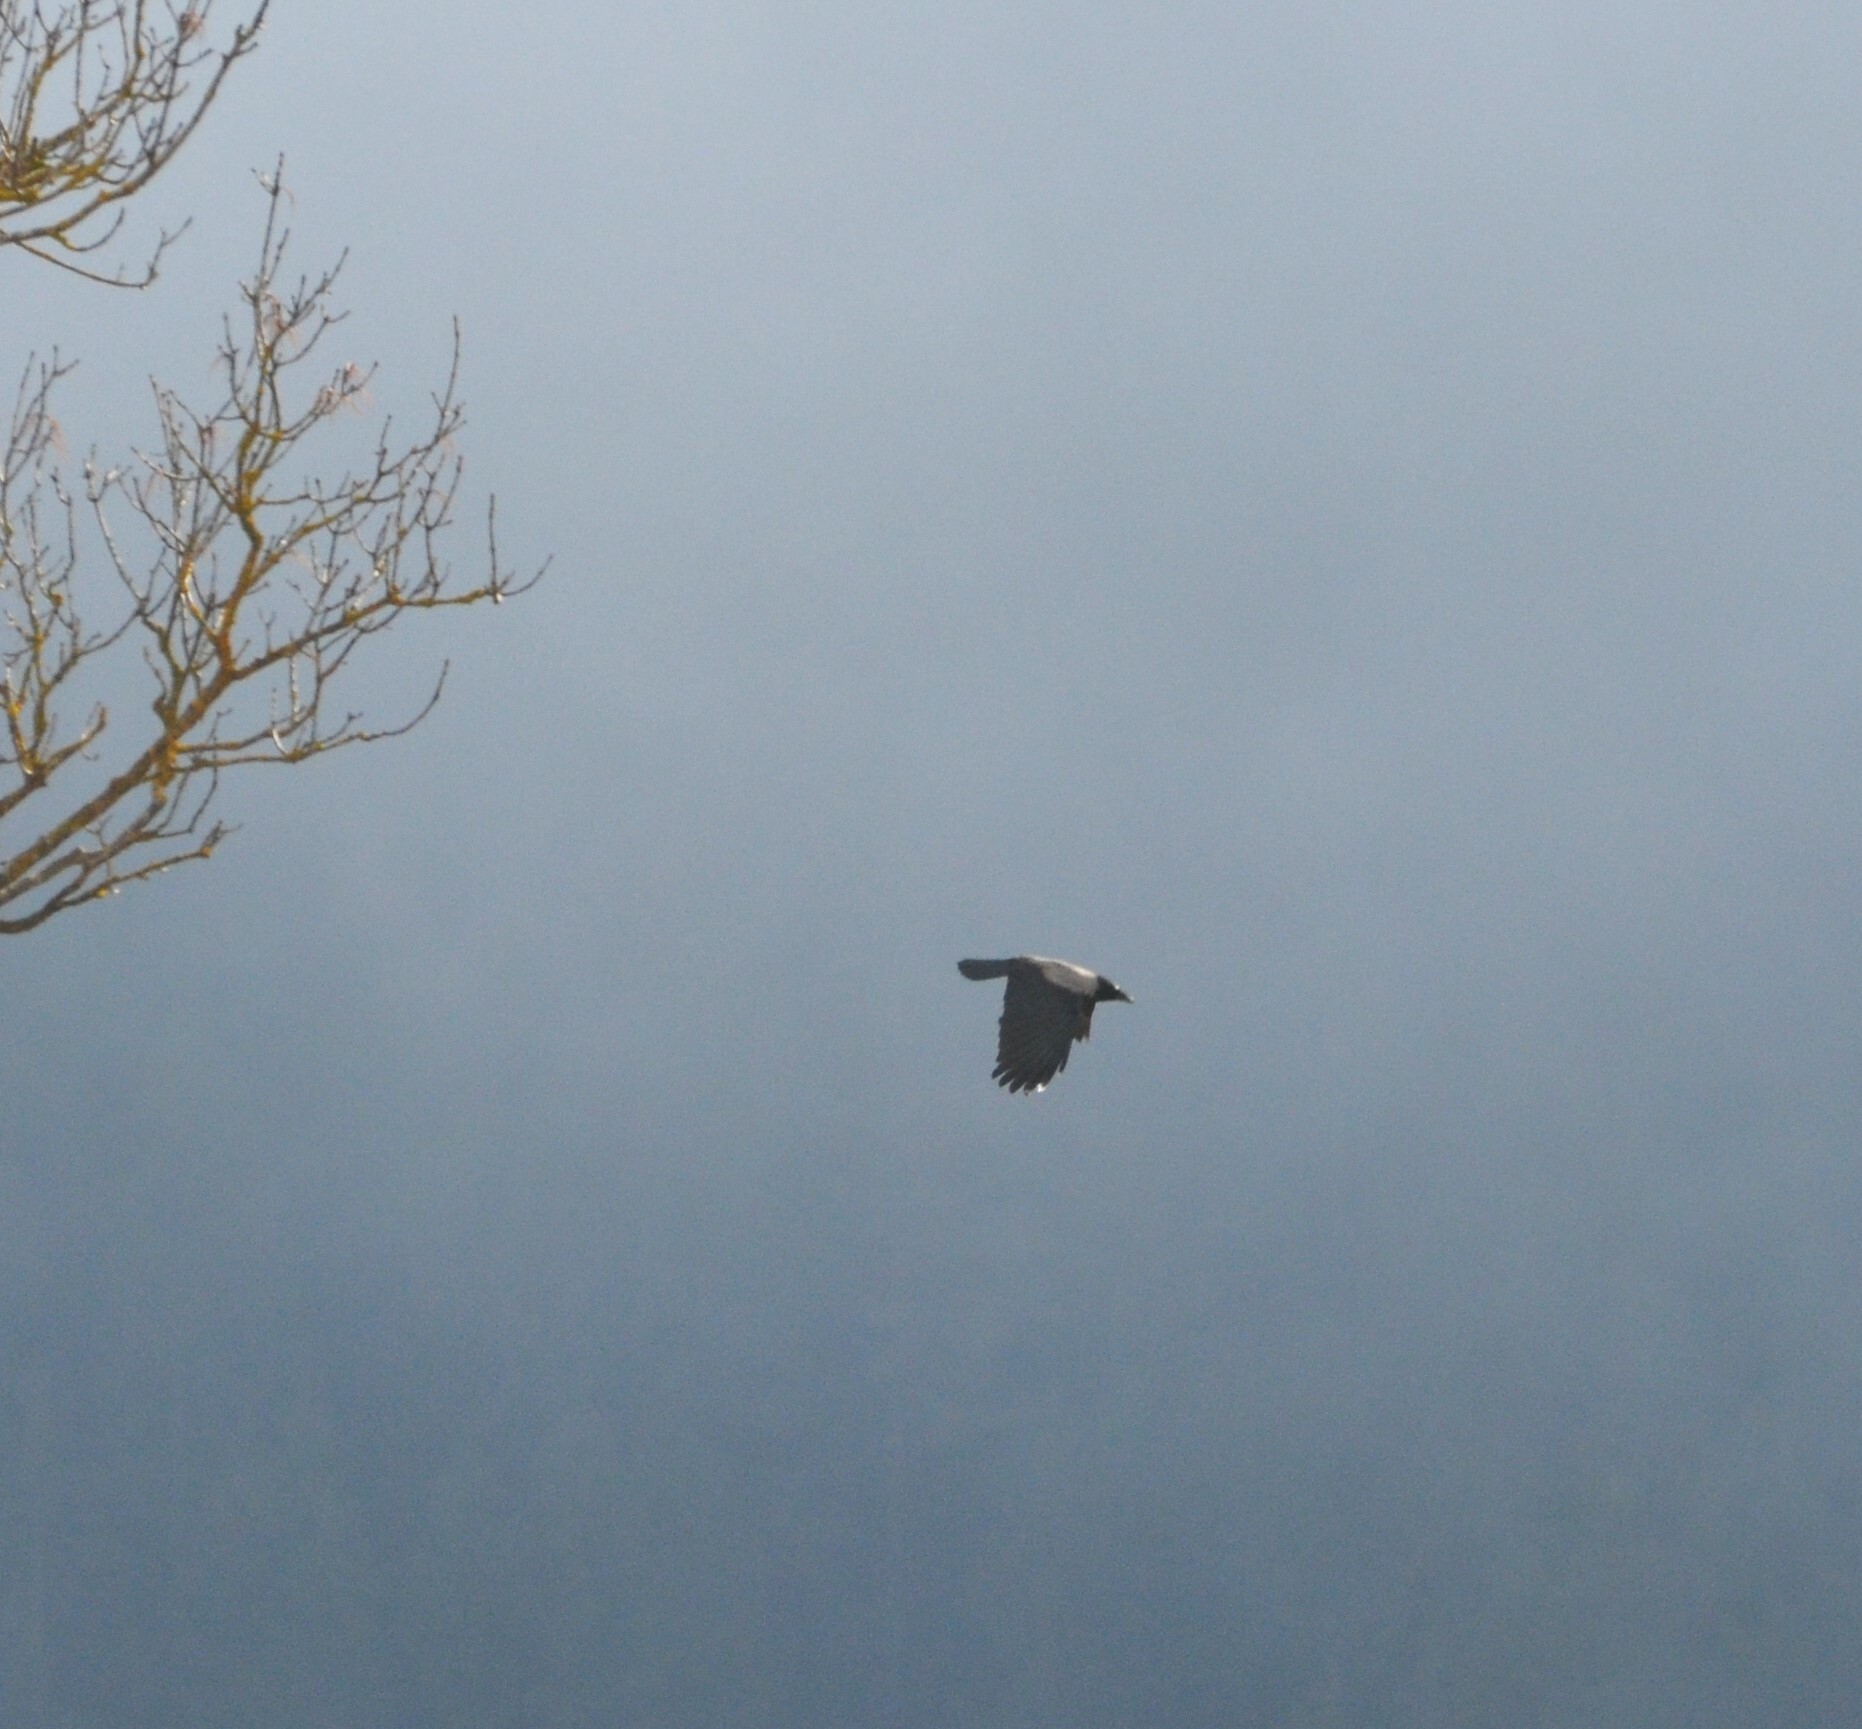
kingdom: Animalia
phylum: Chordata
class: Aves
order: Passeriformes
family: Corvidae
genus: Corvus
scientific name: Corvus cornix
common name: Hooded crow
